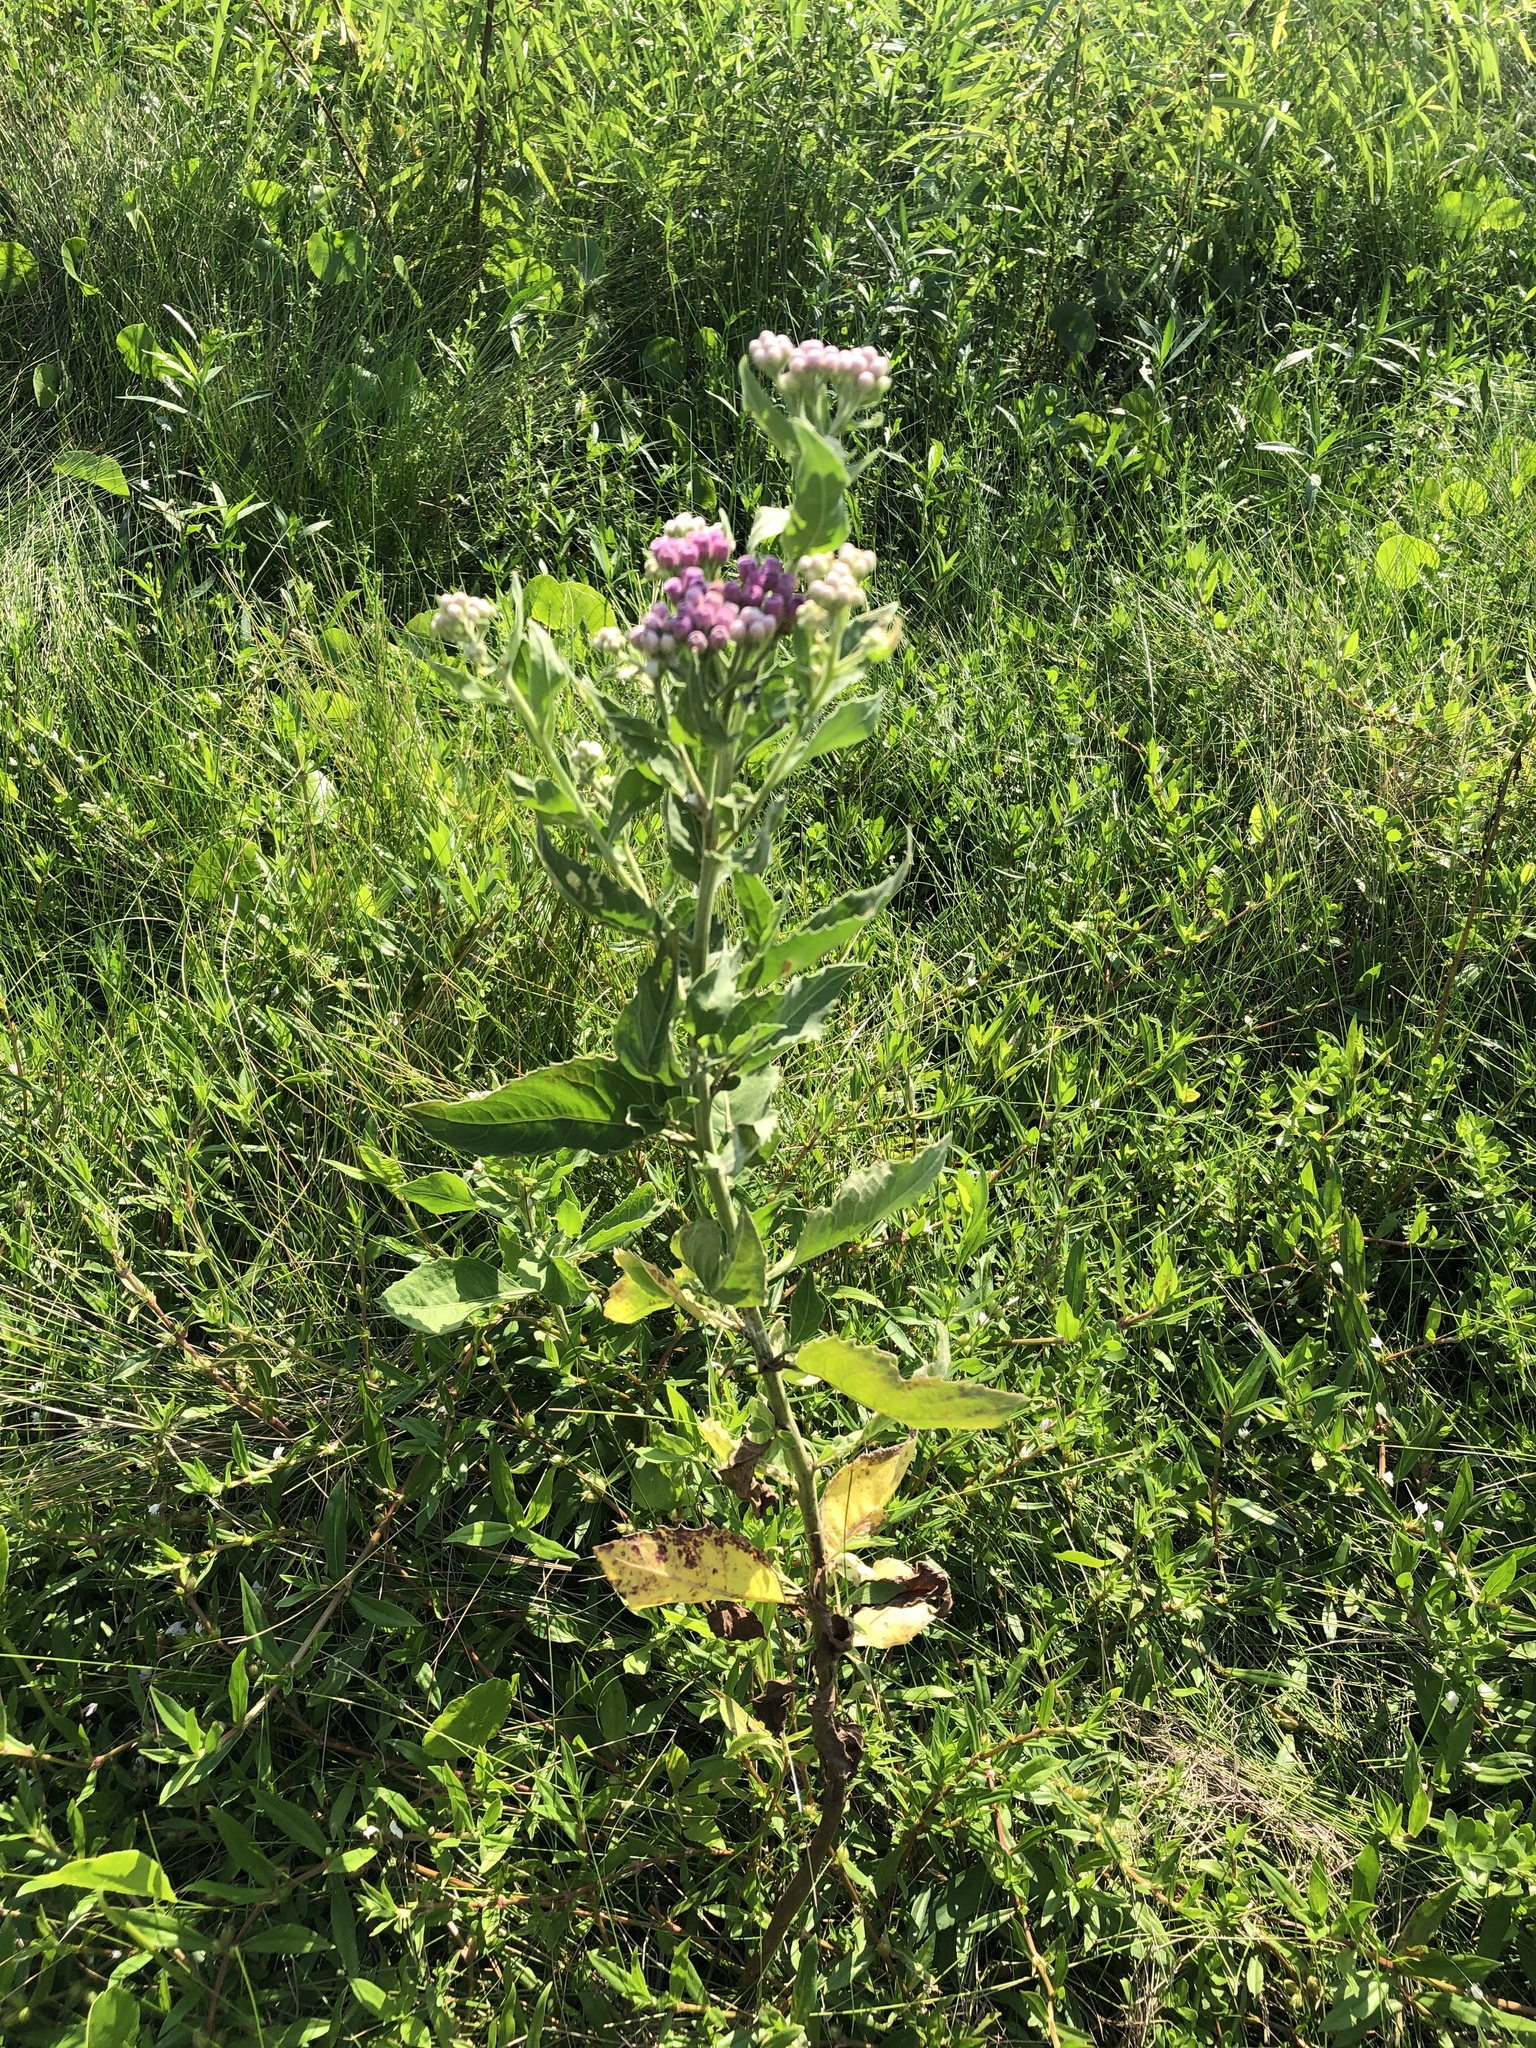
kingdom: Plantae
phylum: Tracheophyta
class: Magnoliopsida
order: Asterales
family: Asteraceae
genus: Pluchea
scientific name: Pluchea odorata
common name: Saltmarsh fleabane
